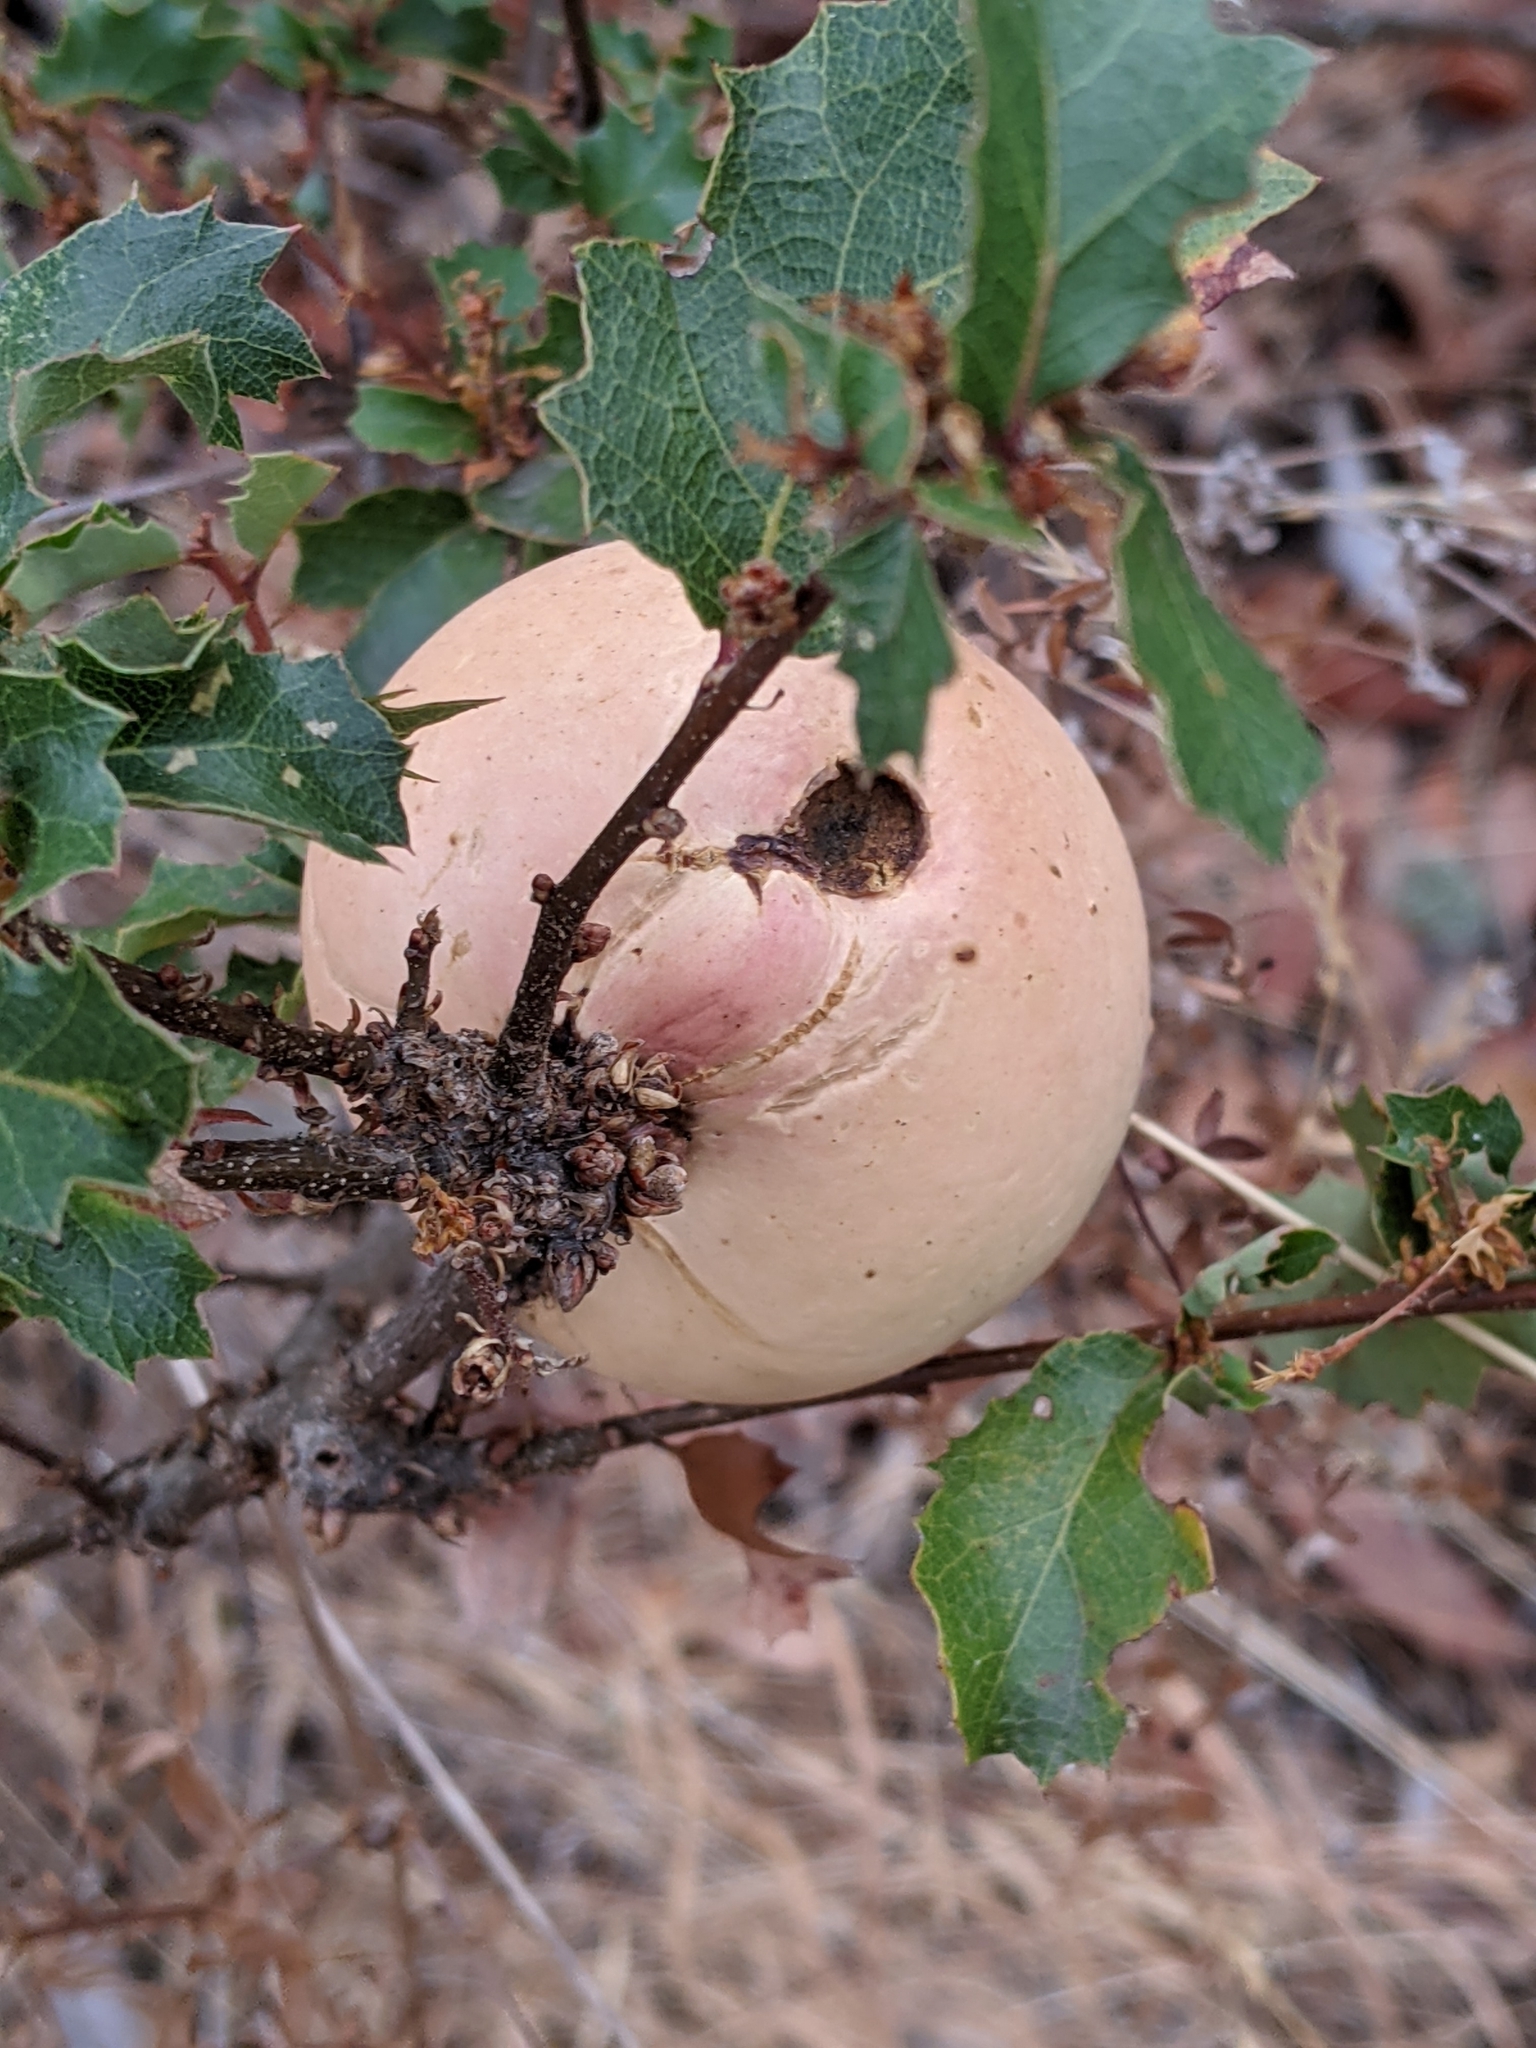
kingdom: Animalia
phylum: Arthropoda
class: Insecta
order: Hymenoptera
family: Cynipidae
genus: Andricus
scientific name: Andricus quercuscalifornicus
